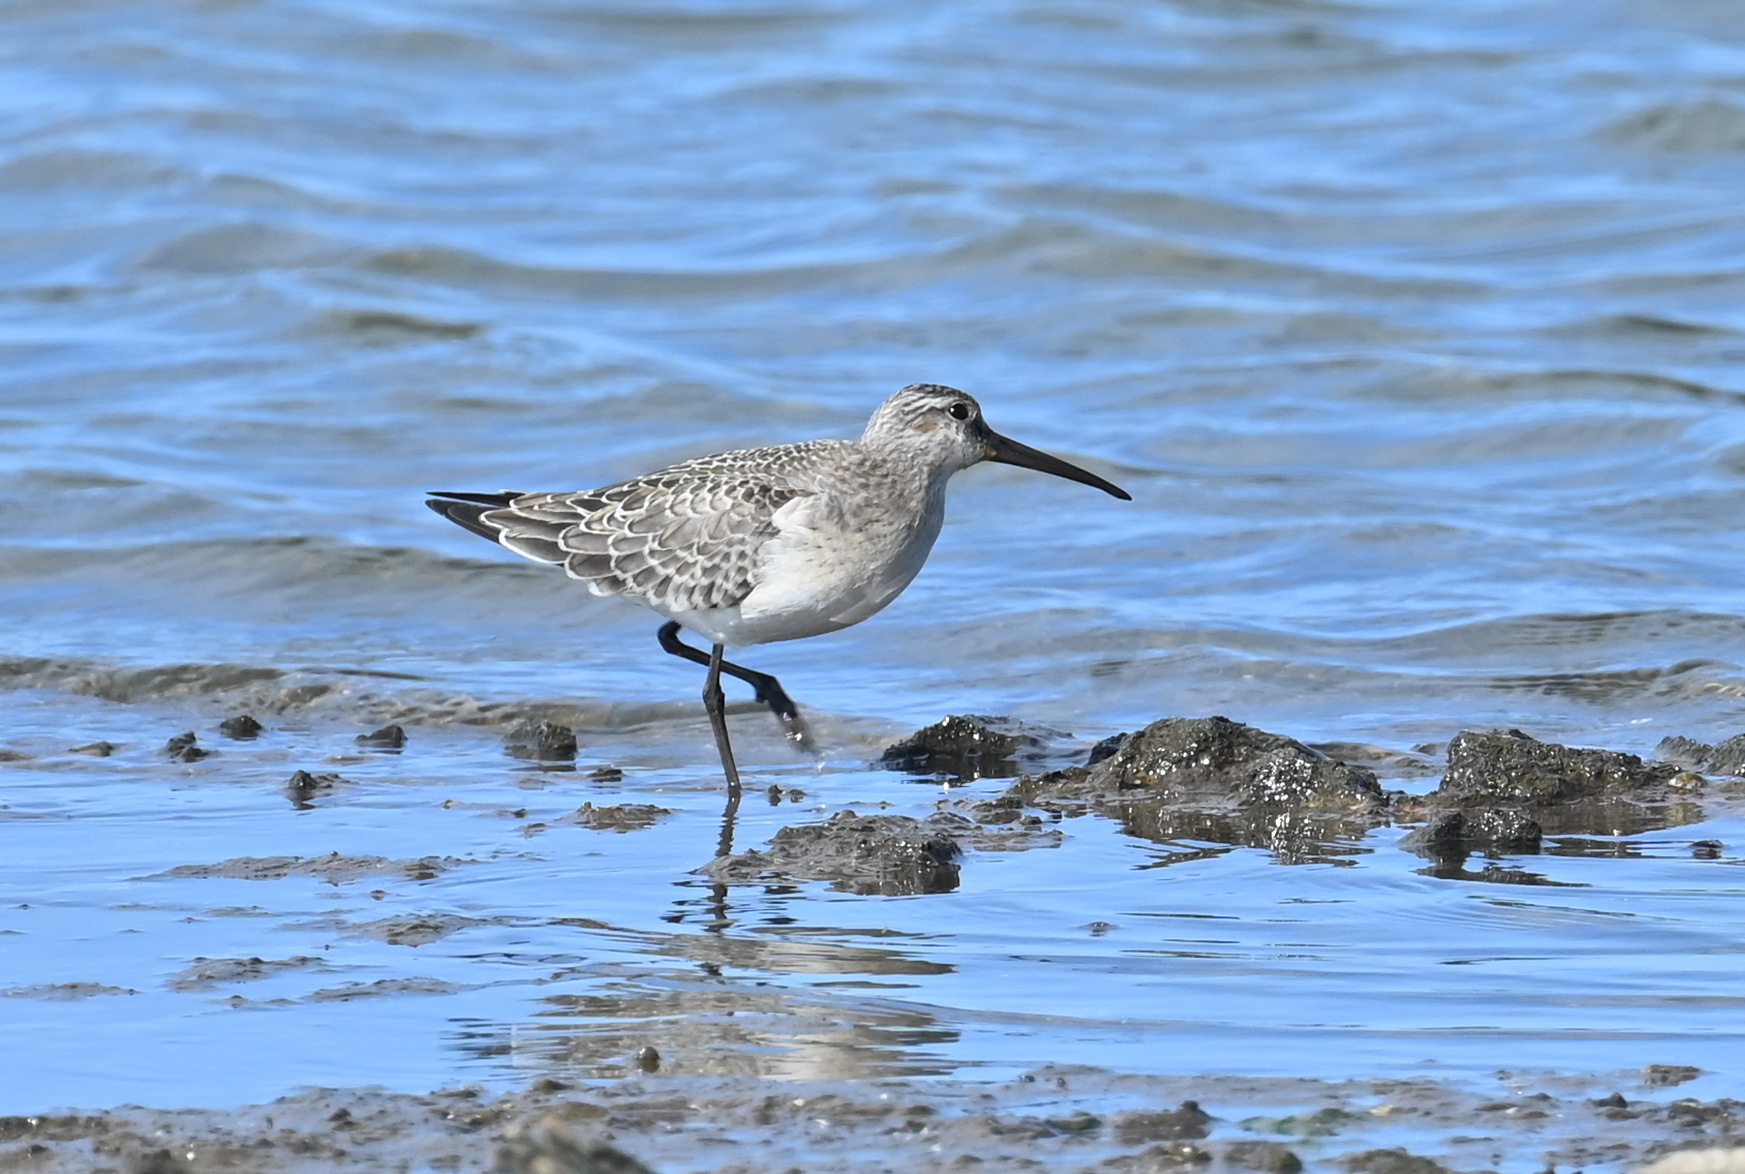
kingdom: Animalia
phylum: Chordata
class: Aves
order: Charadriiformes
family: Scolopacidae
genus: Calidris
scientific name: Calidris ferruginea
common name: Curlew sandpiper
